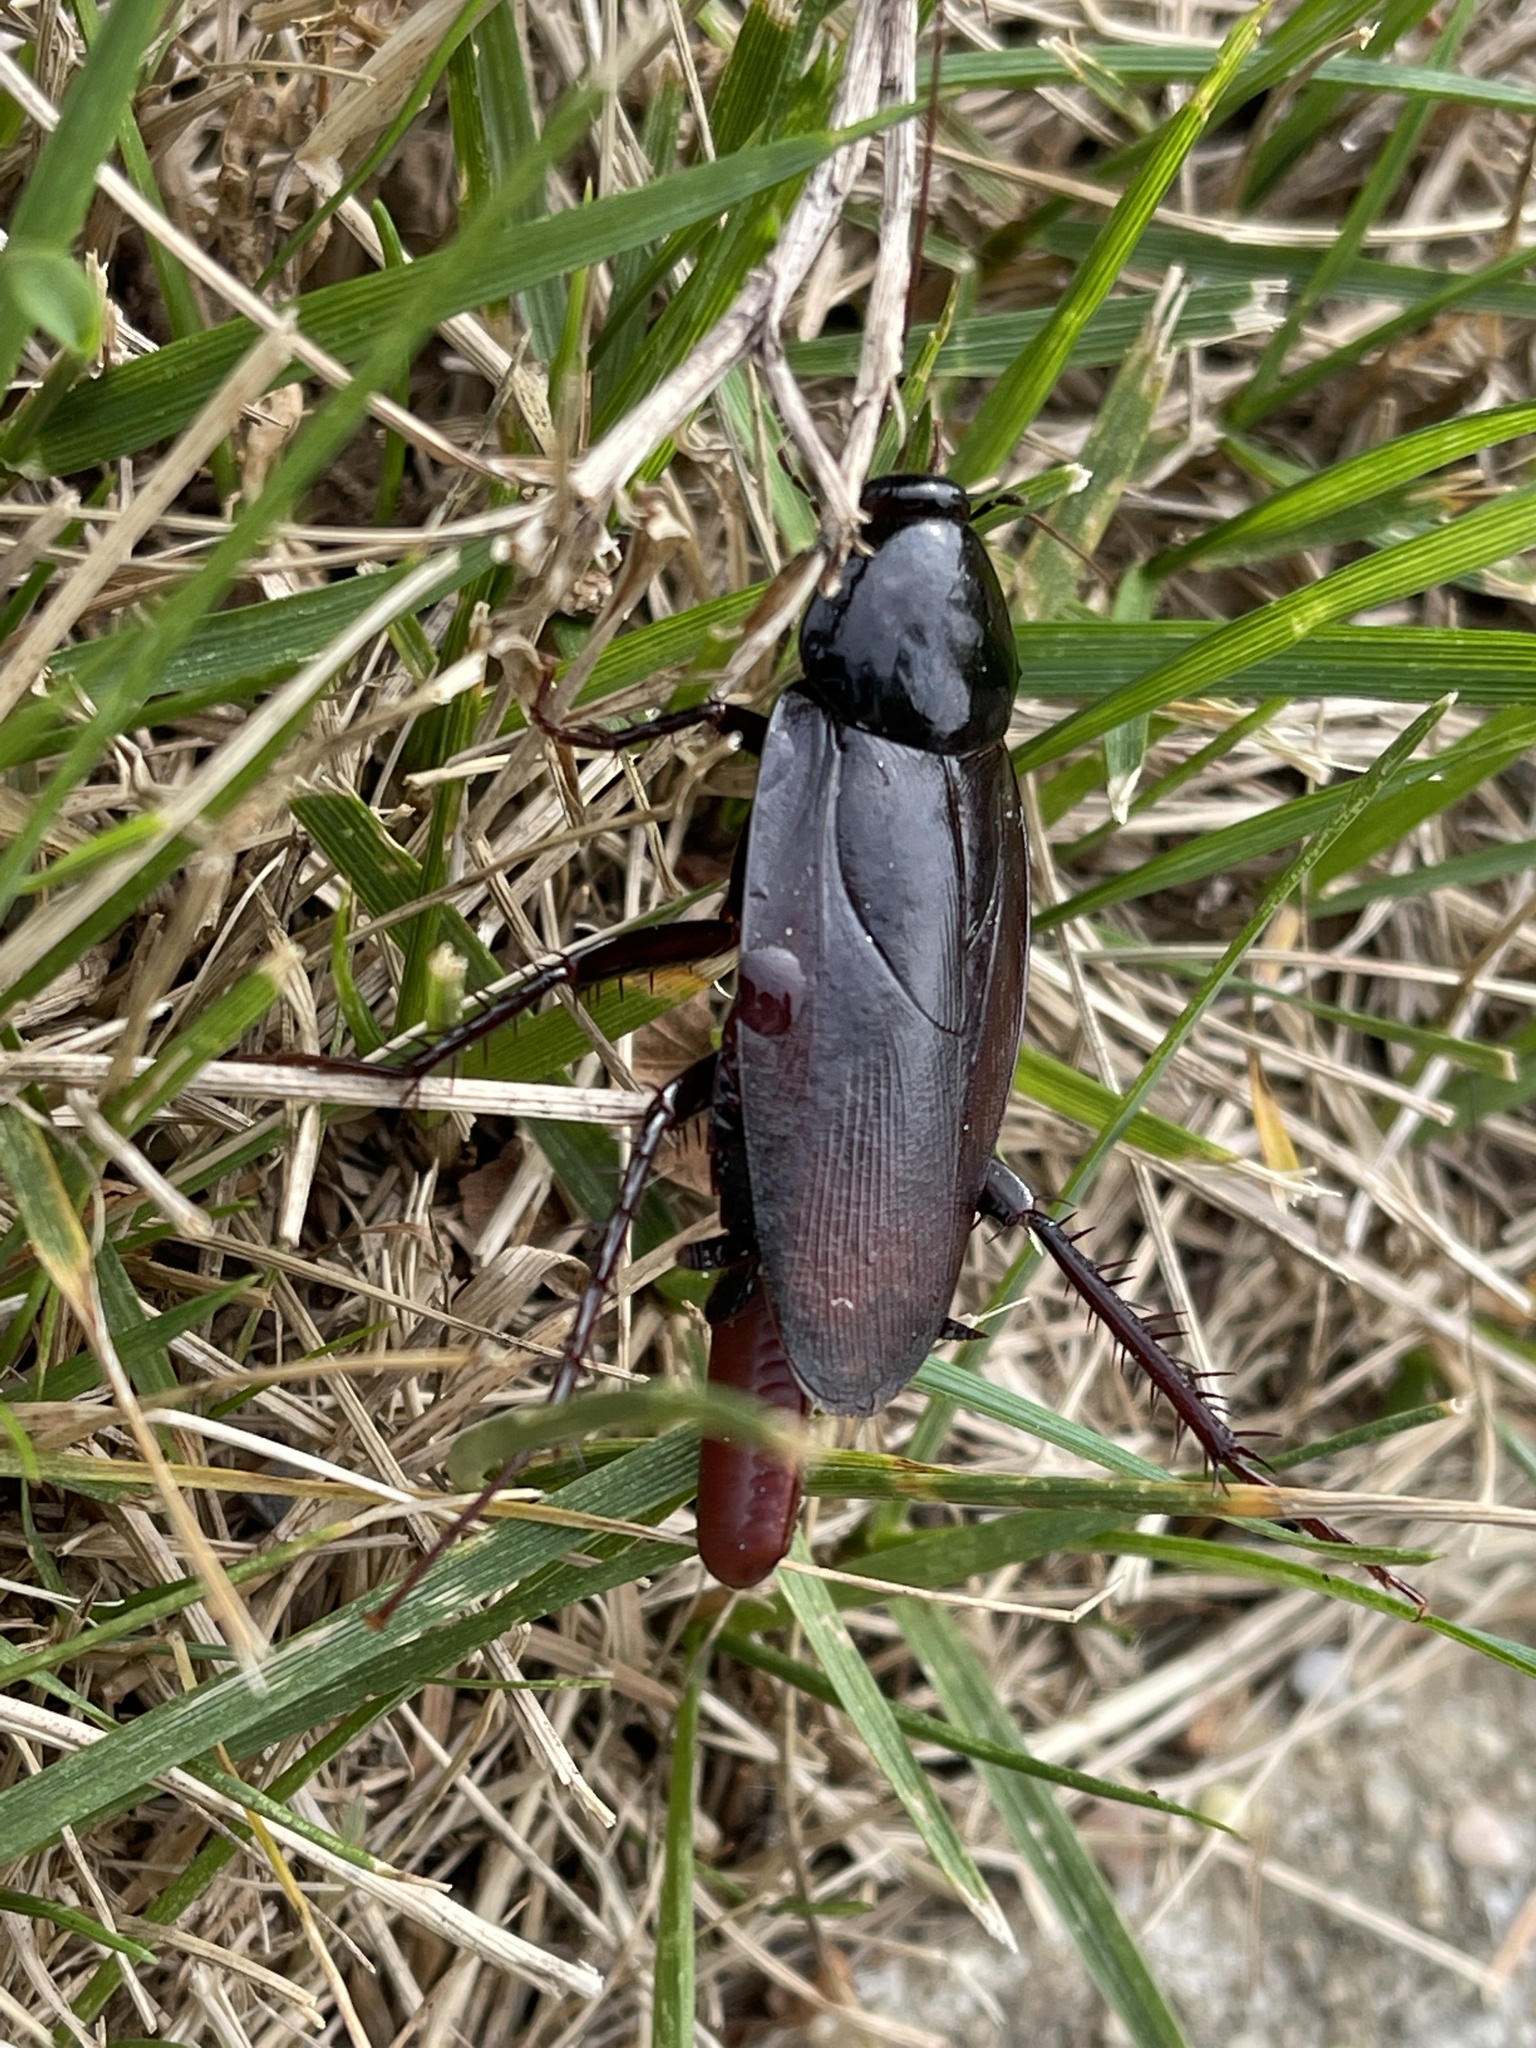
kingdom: Animalia
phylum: Arthropoda
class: Insecta
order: Blattodea
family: Blattidae
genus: Periplaneta
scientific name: Periplaneta fuliginosa
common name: Smokeybrown cockroad
